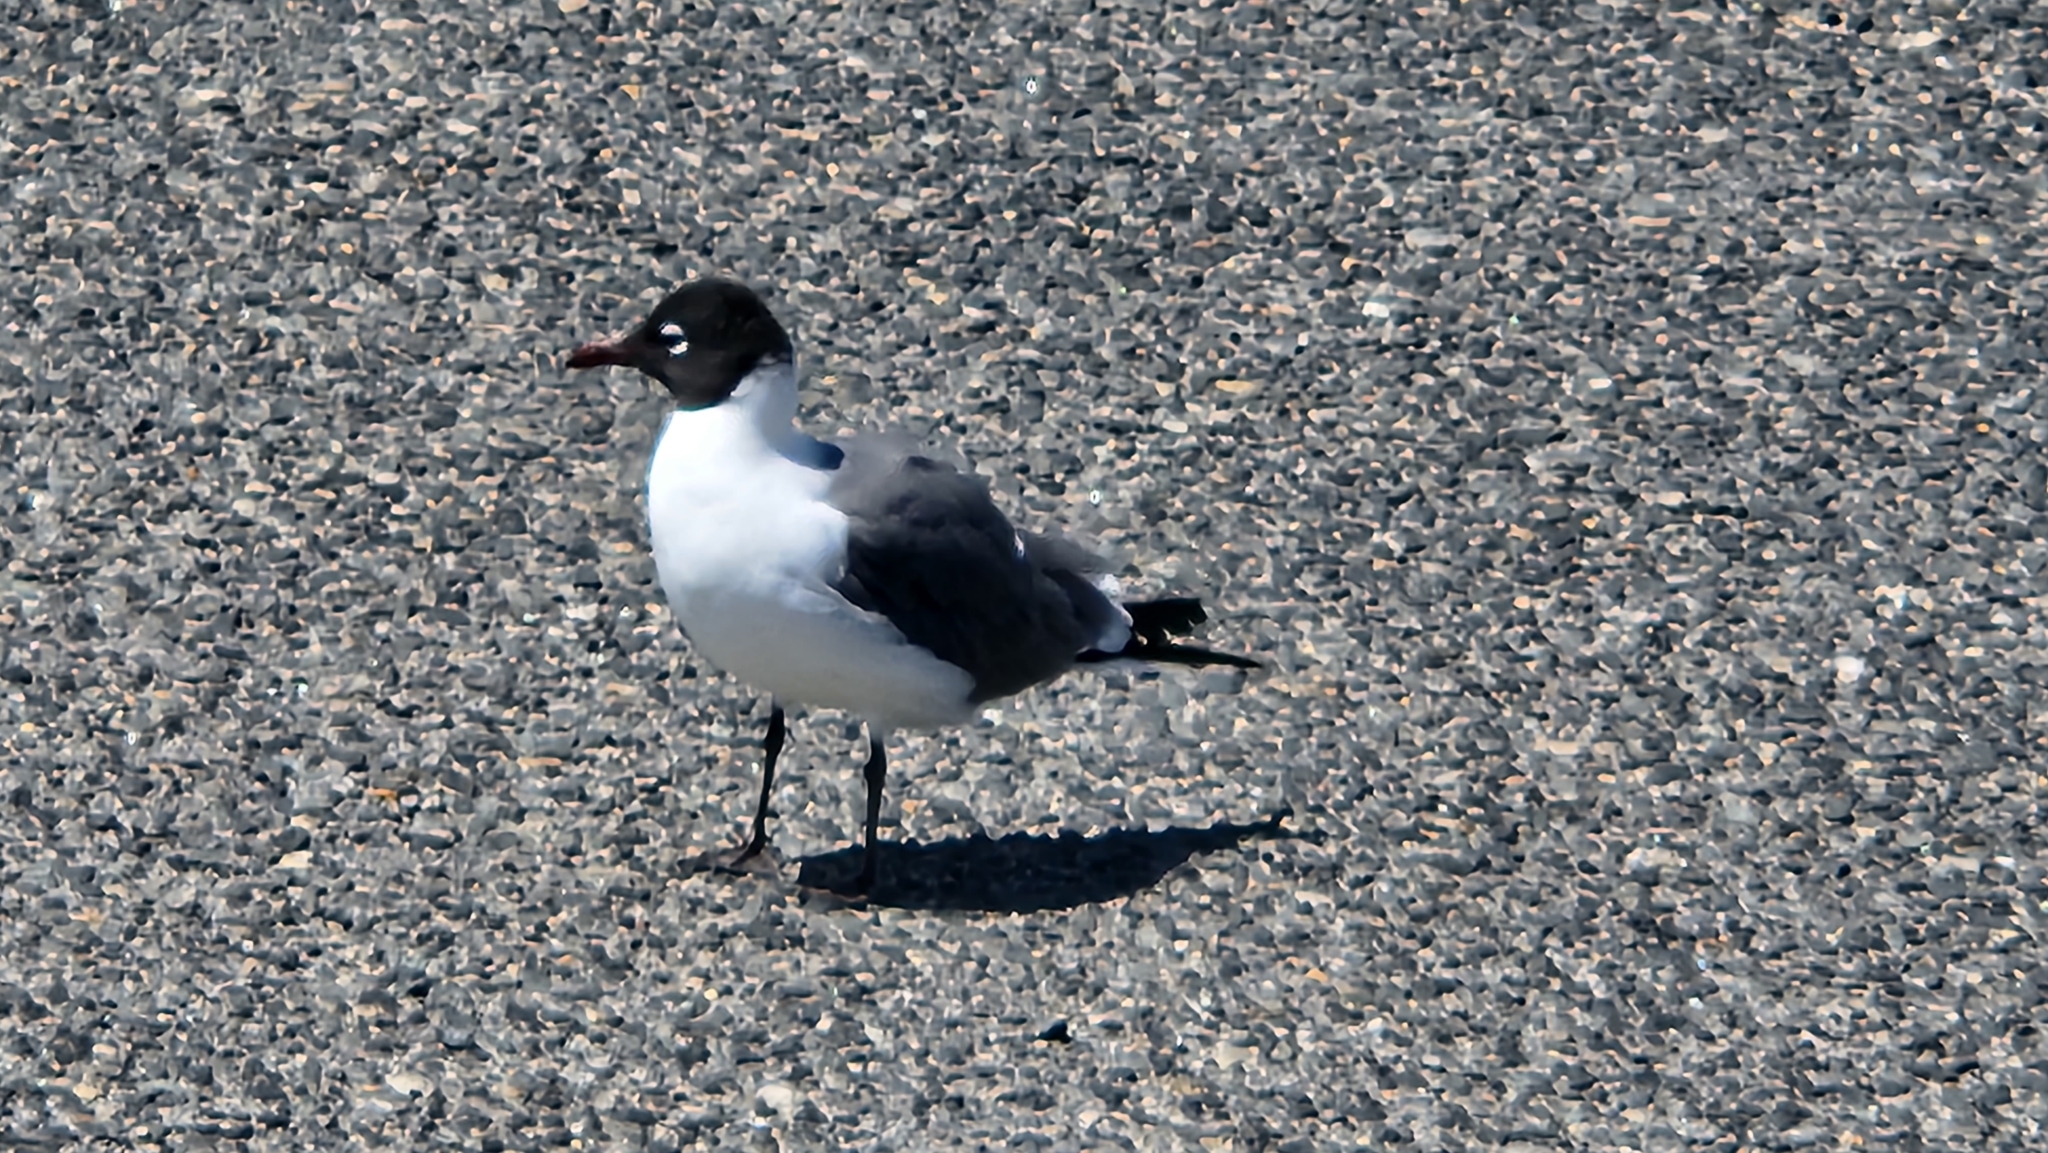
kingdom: Animalia
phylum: Chordata
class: Aves
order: Charadriiformes
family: Laridae
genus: Leucophaeus
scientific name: Leucophaeus atricilla
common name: Laughing gull
